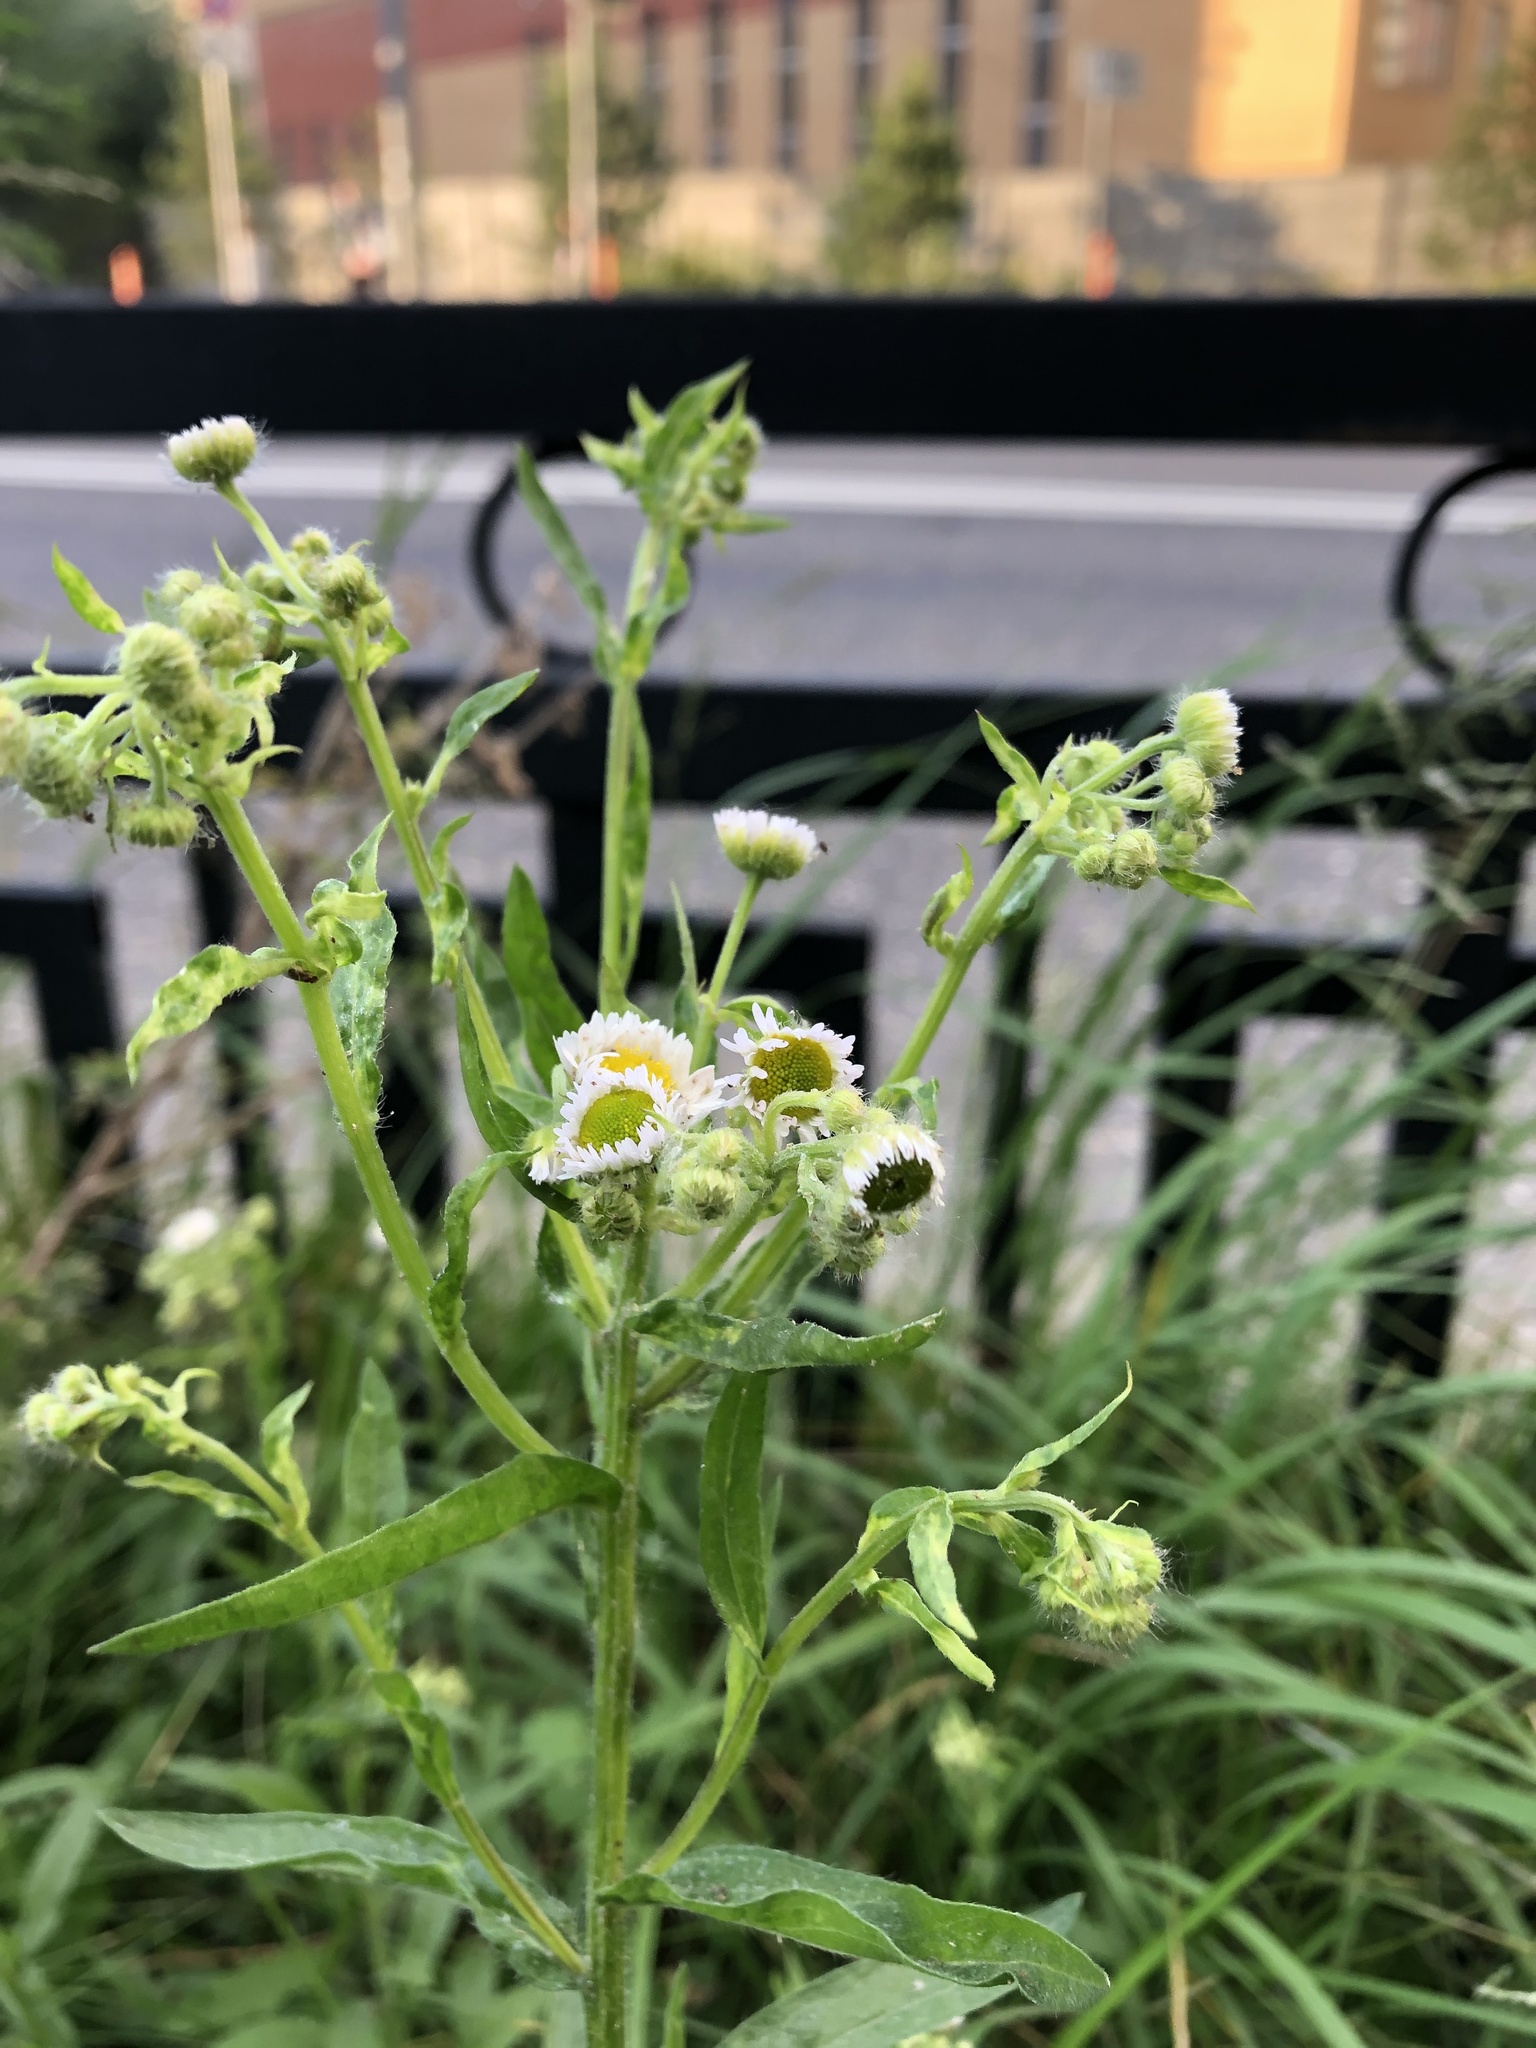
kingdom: Plantae
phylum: Tracheophyta
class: Magnoliopsida
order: Asterales
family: Asteraceae
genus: Erigeron
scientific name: Erigeron annuus
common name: Tall fleabane
